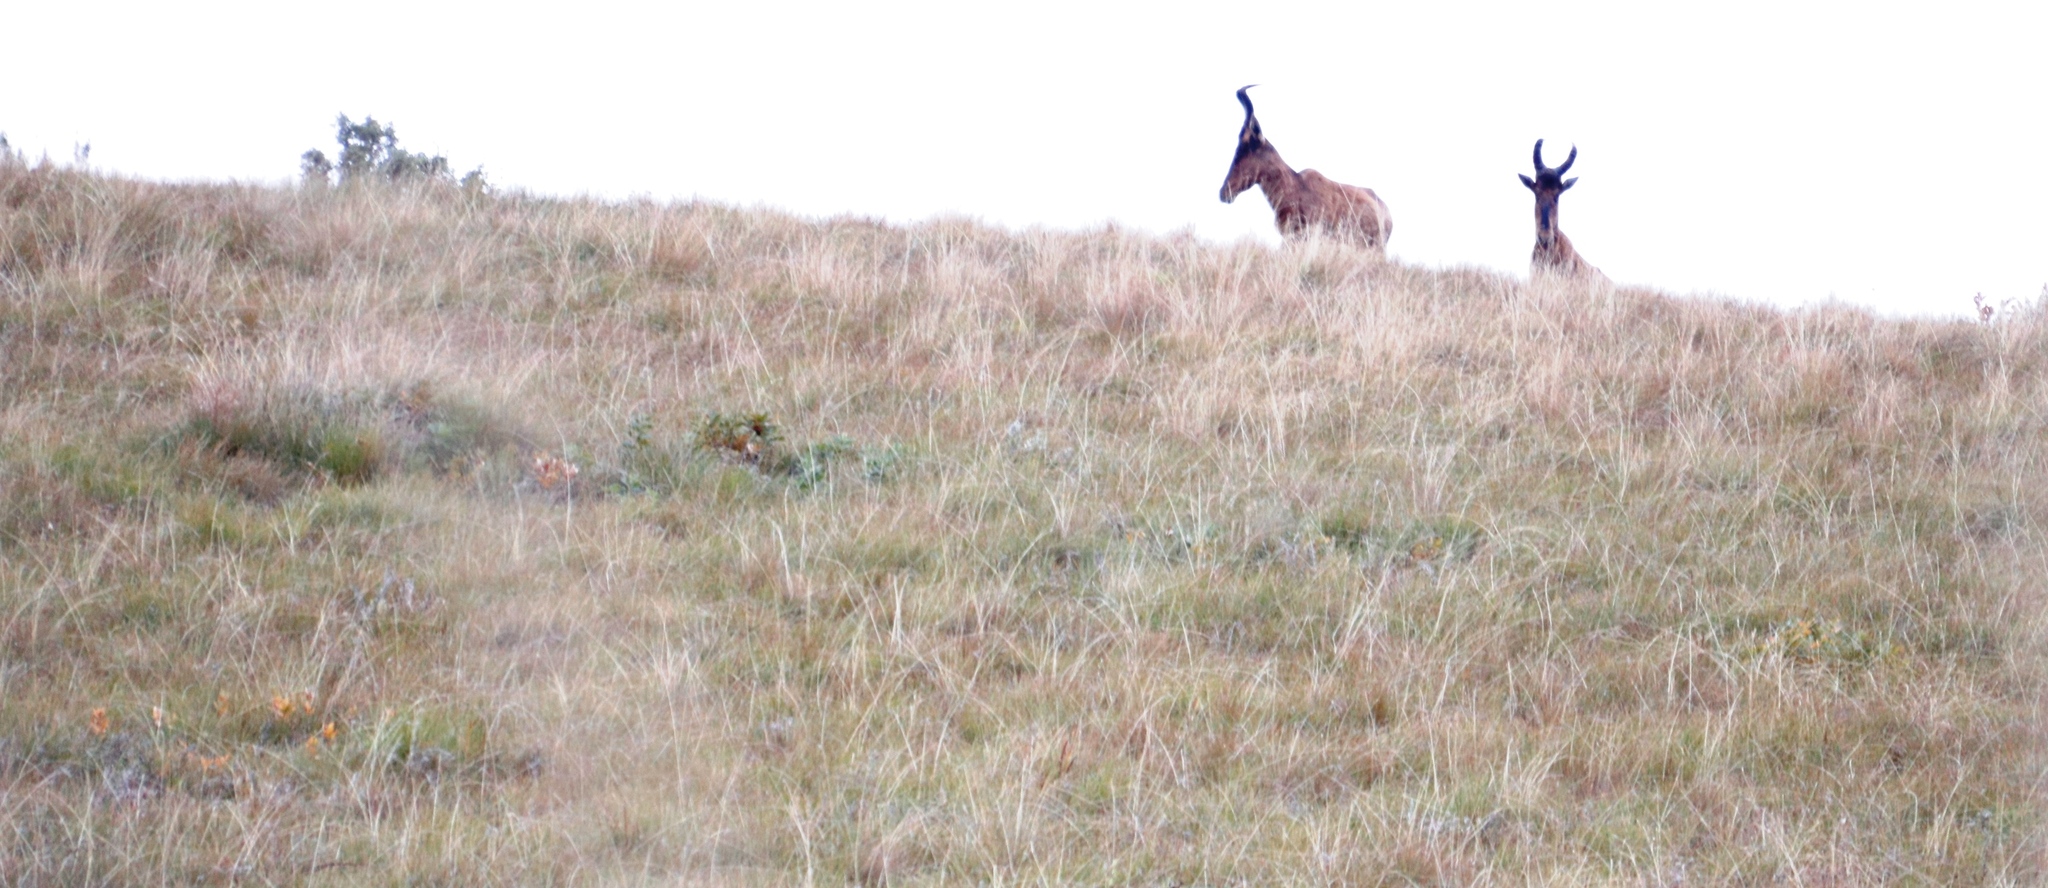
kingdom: Animalia
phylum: Chordata
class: Mammalia
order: Artiodactyla
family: Bovidae
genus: Alcelaphus
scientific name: Alcelaphus caama
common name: Red hartebeest
